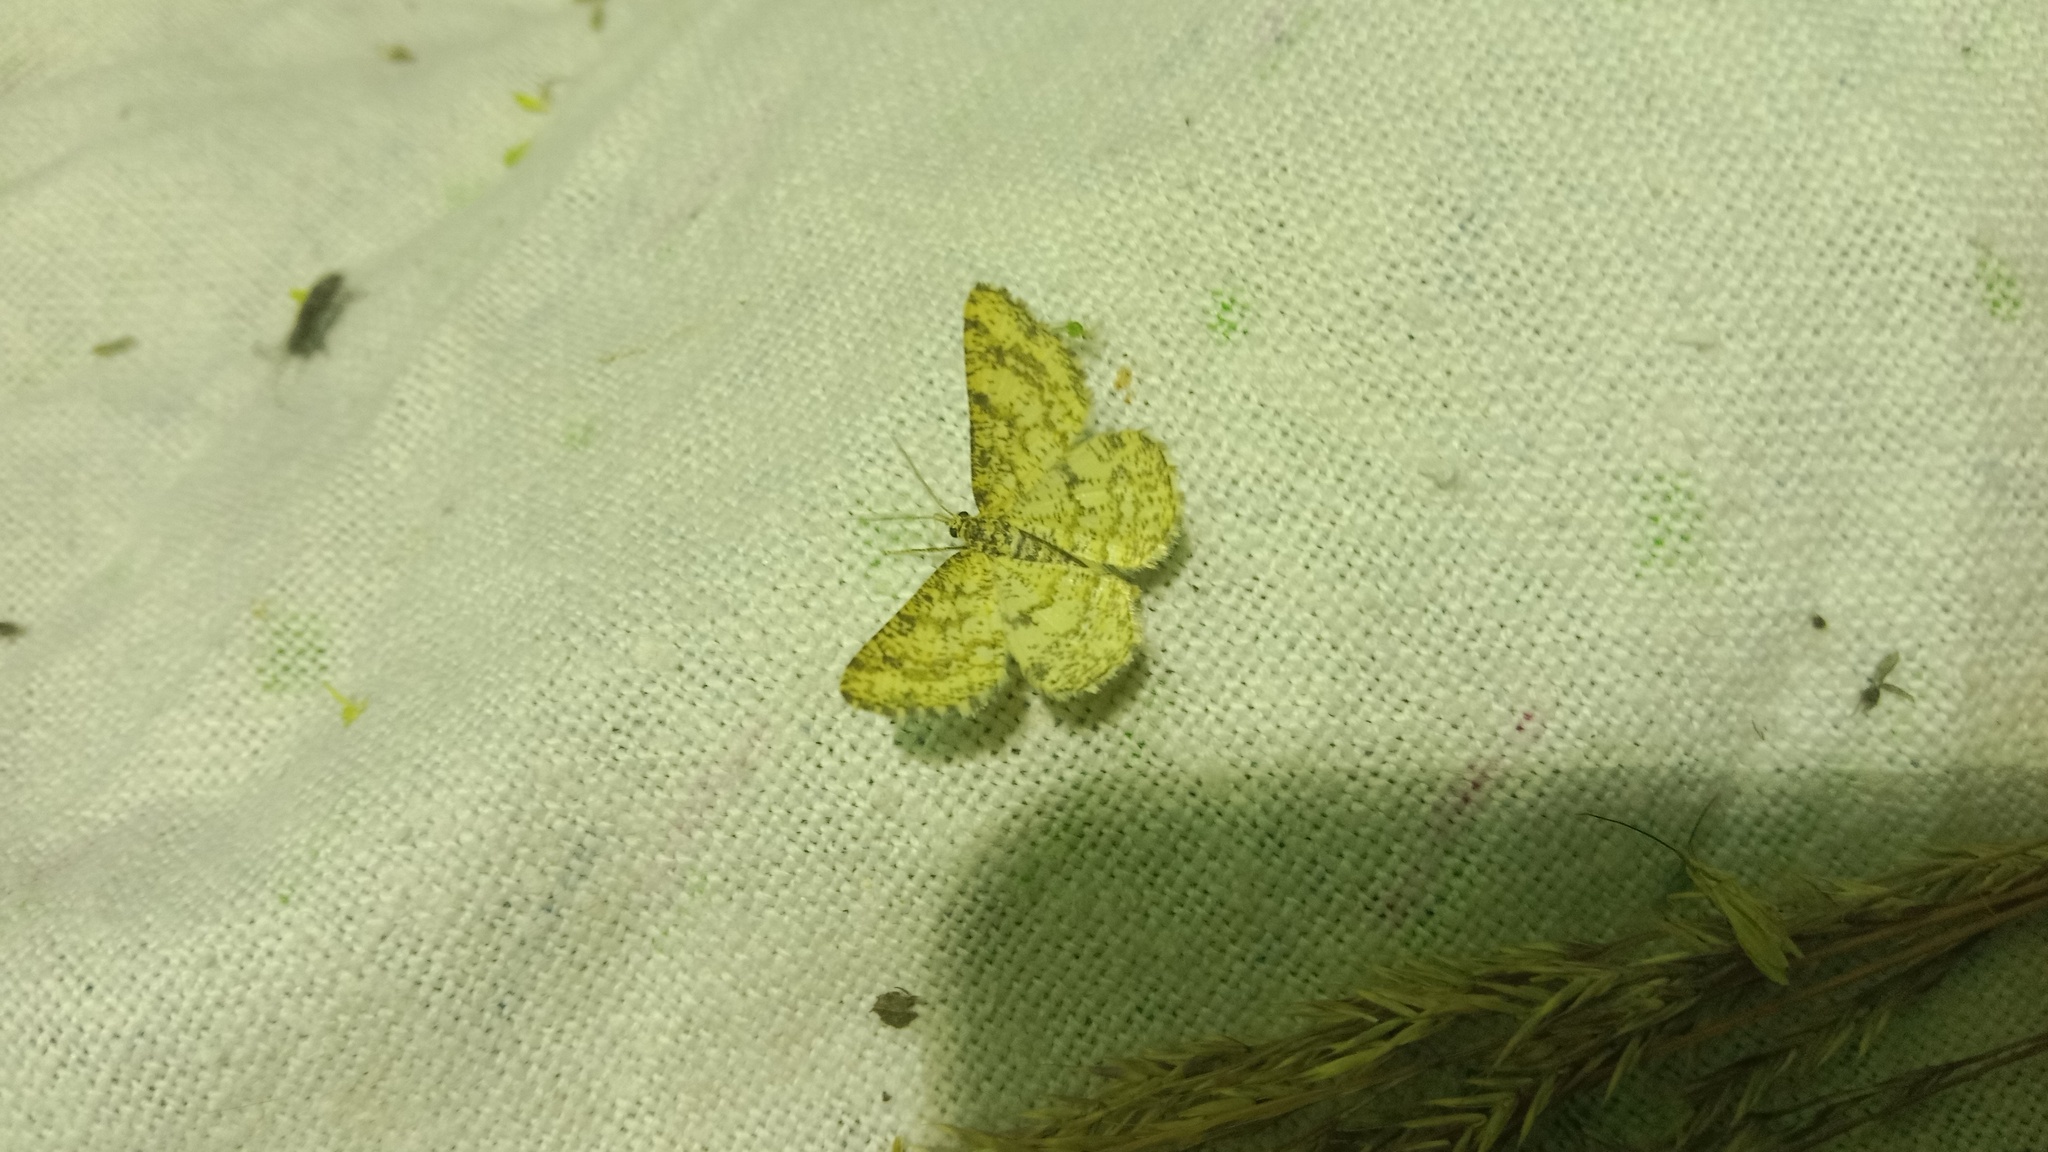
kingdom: Animalia
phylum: Arthropoda
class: Insecta
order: Lepidoptera
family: Geometridae
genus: Heliomata
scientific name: Heliomata glarearia
